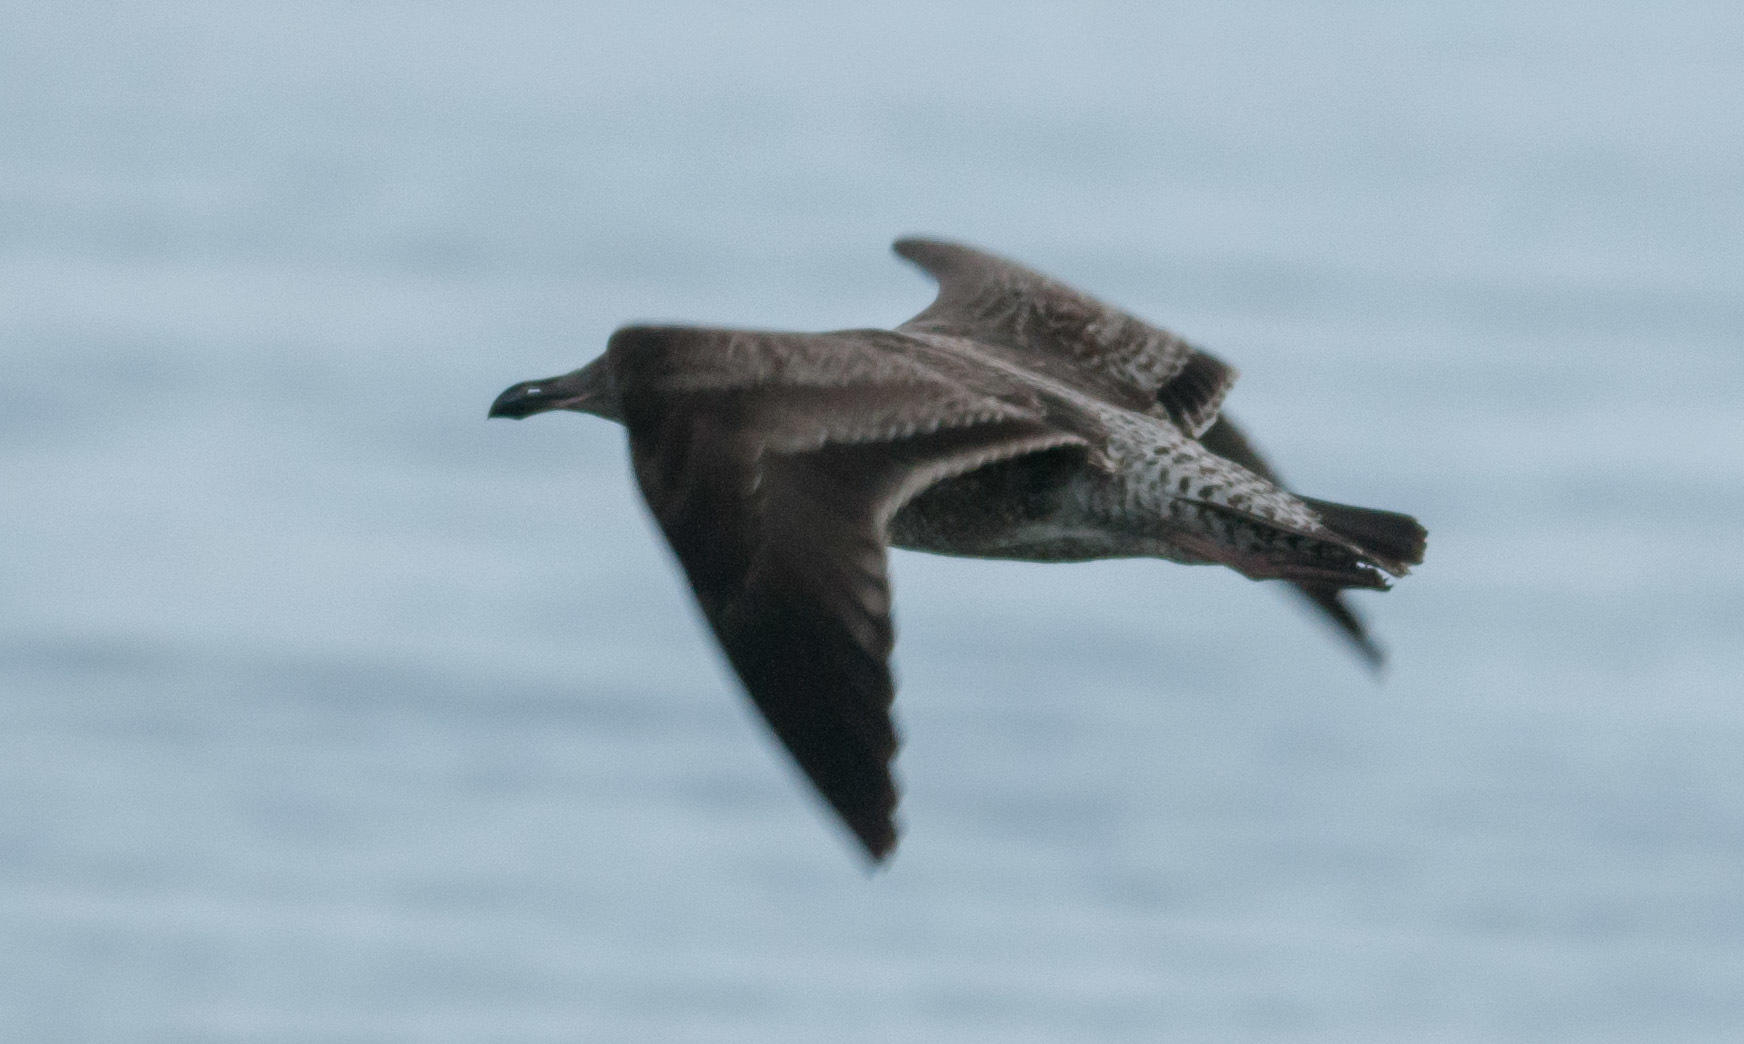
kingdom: Animalia
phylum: Chordata
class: Aves
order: Charadriiformes
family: Laridae
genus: Larus
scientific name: Larus occidentalis
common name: Western gull
